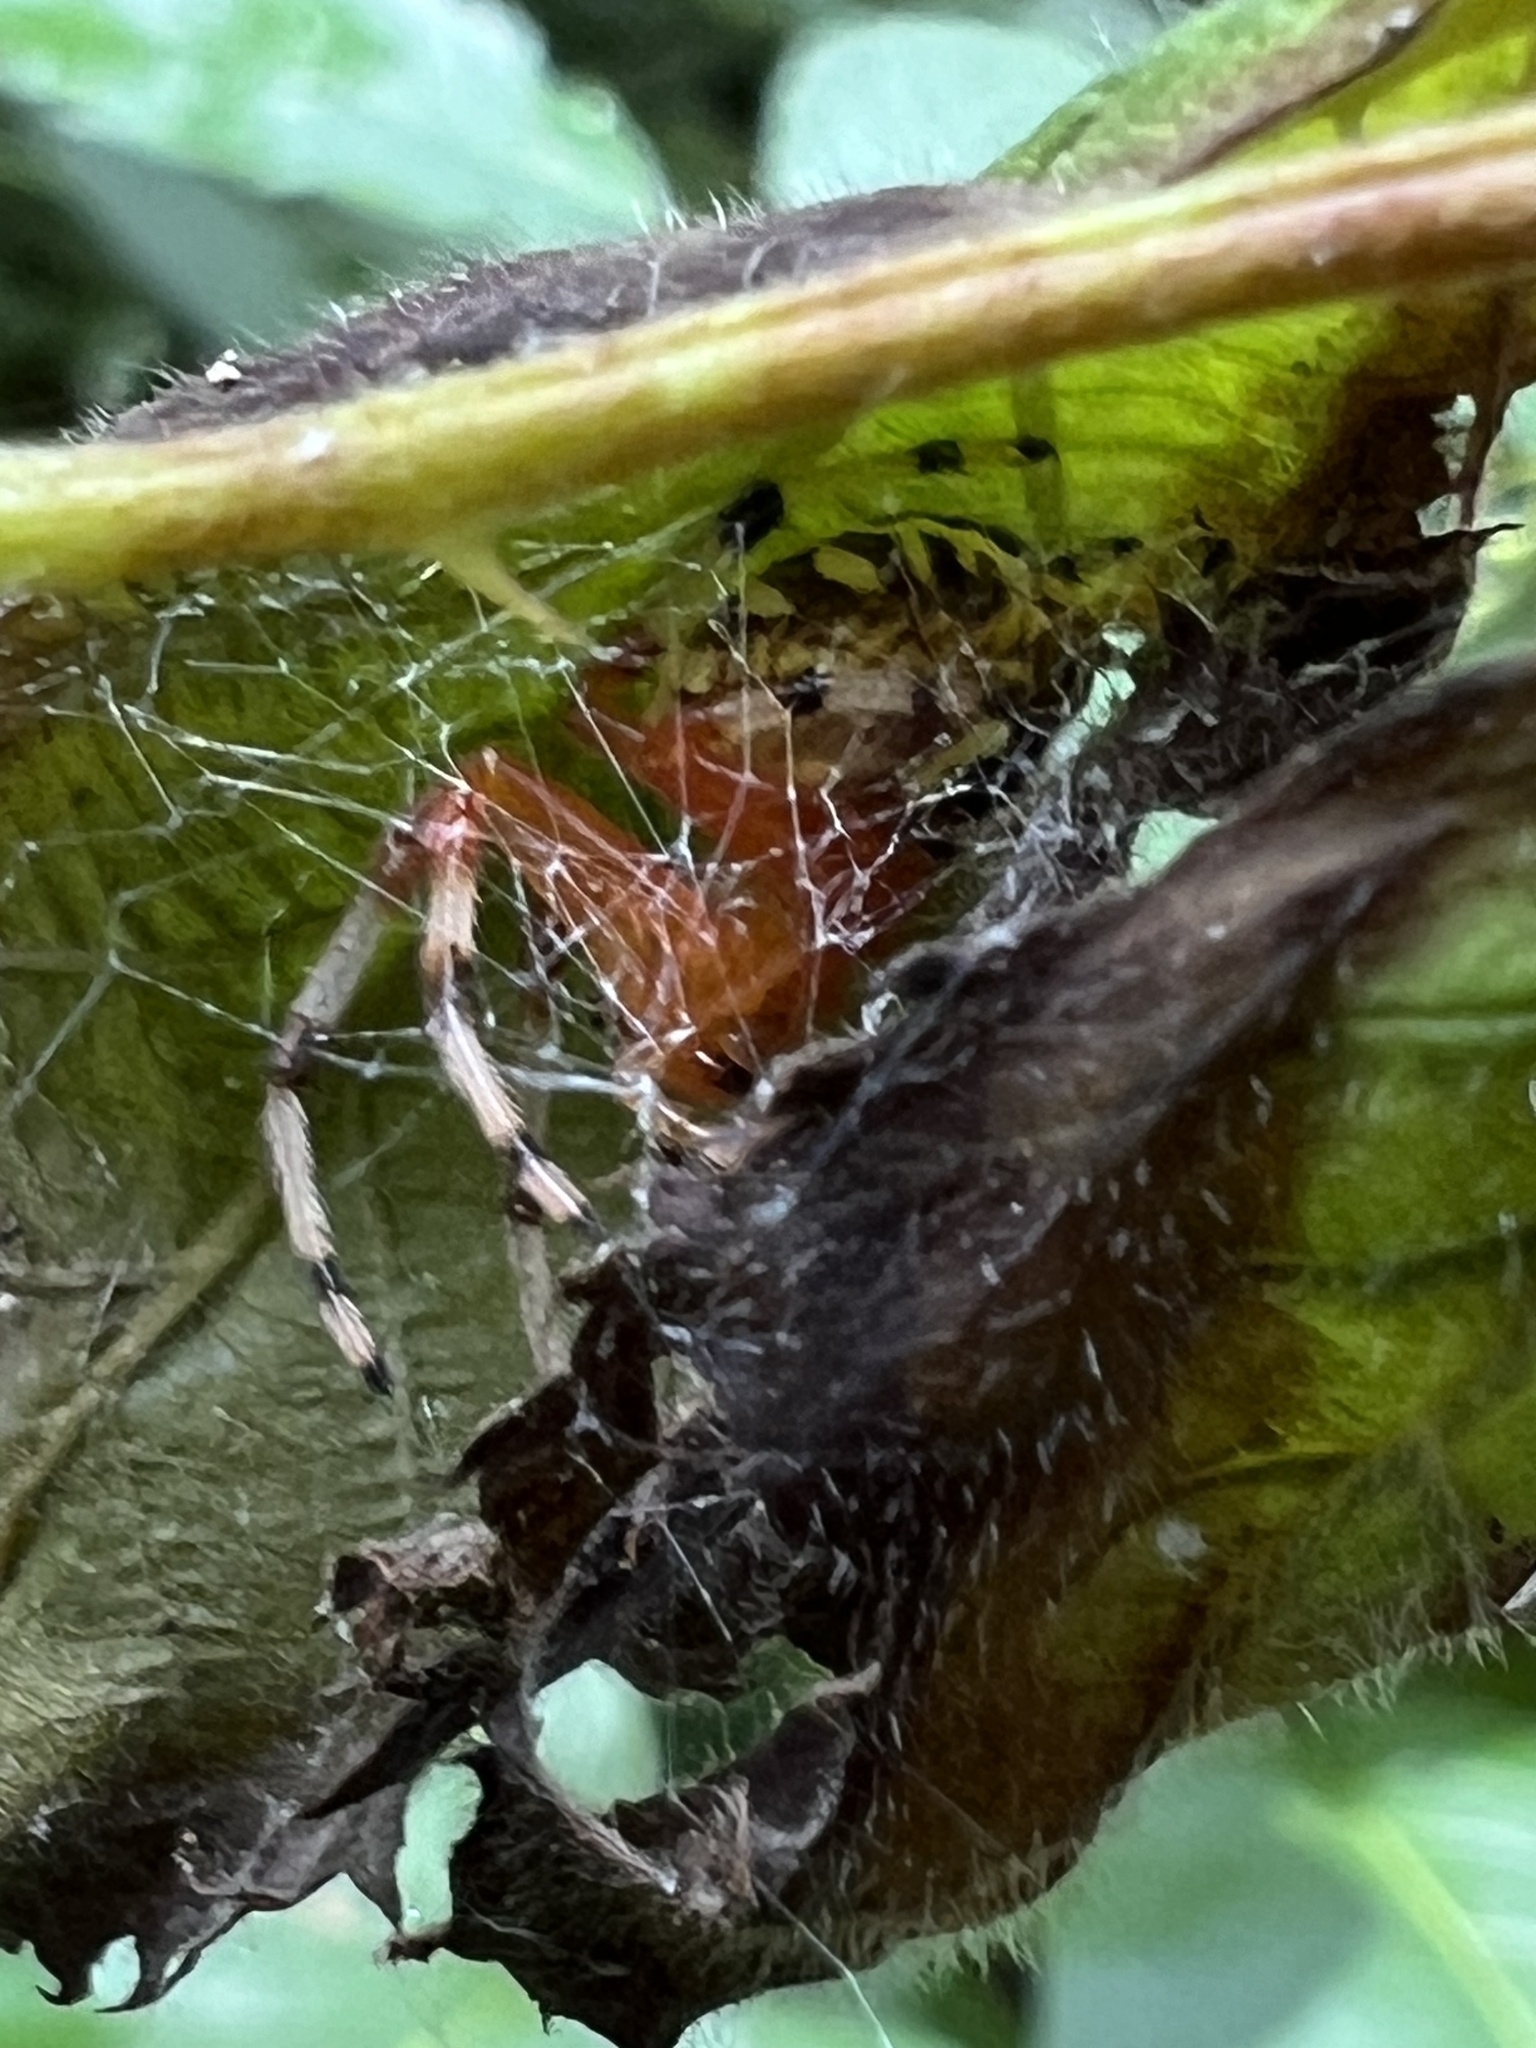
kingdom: Animalia
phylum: Arthropoda
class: Arachnida
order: Araneae
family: Araneidae
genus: Araneus
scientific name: Araneus marmoreus
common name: Marbled orbweaver
